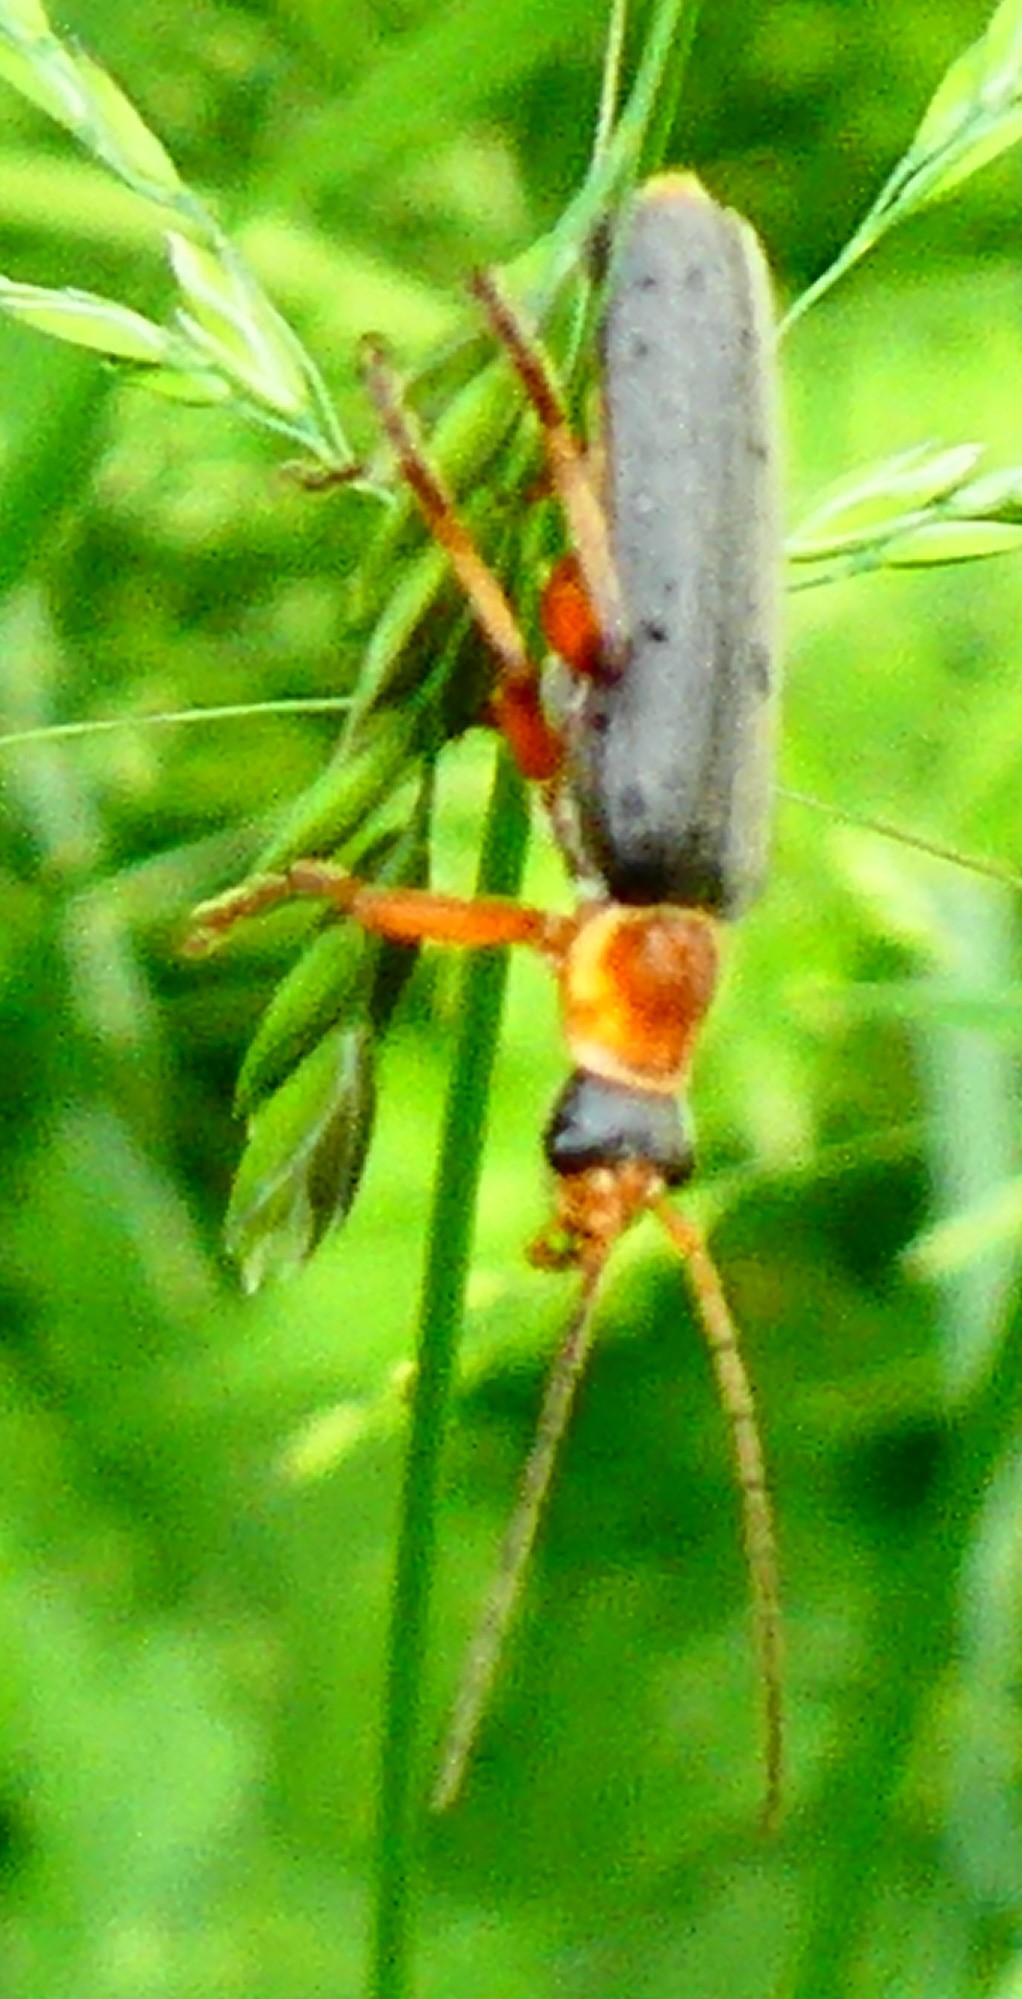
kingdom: Animalia
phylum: Arthropoda
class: Insecta
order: Coleoptera
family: Cantharidae
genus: Cantharis
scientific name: Cantharis nigricans
